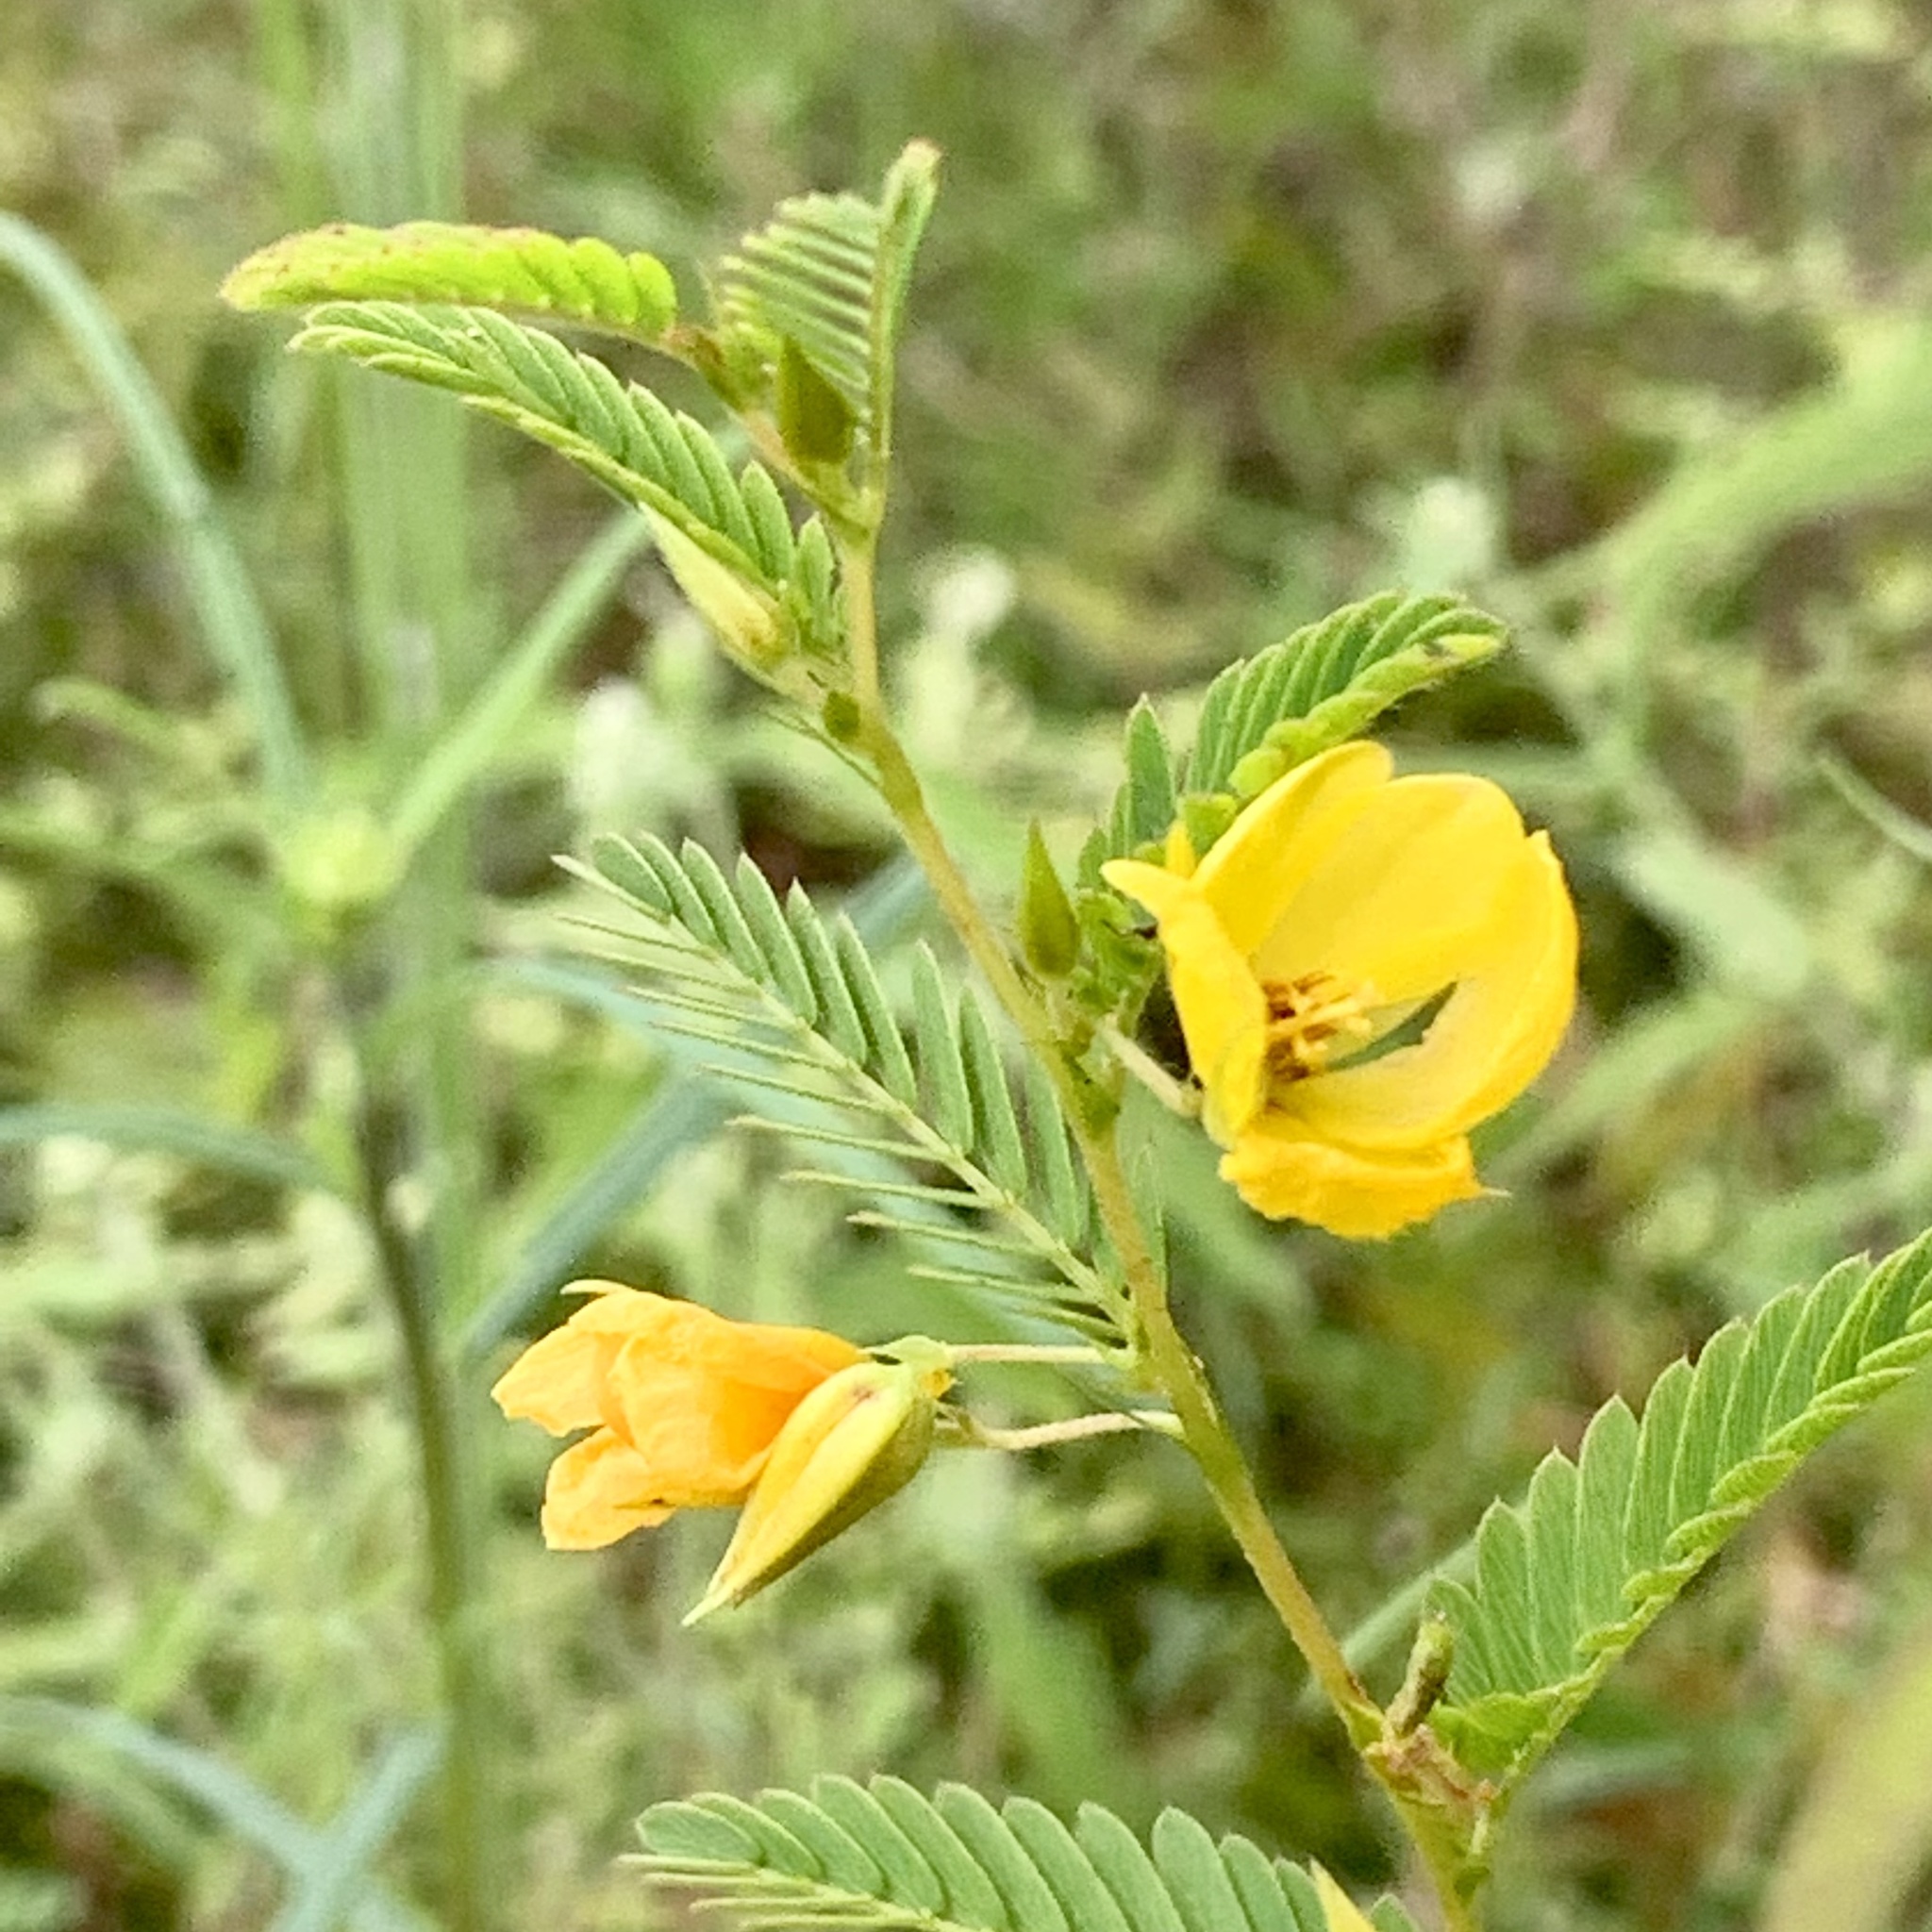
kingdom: Plantae
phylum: Tracheophyta
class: Magnoliopsida
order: Fabales
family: Fabaceae
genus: Chamaecrista
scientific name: Chamaecrista fasciculata
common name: Golden cassia
